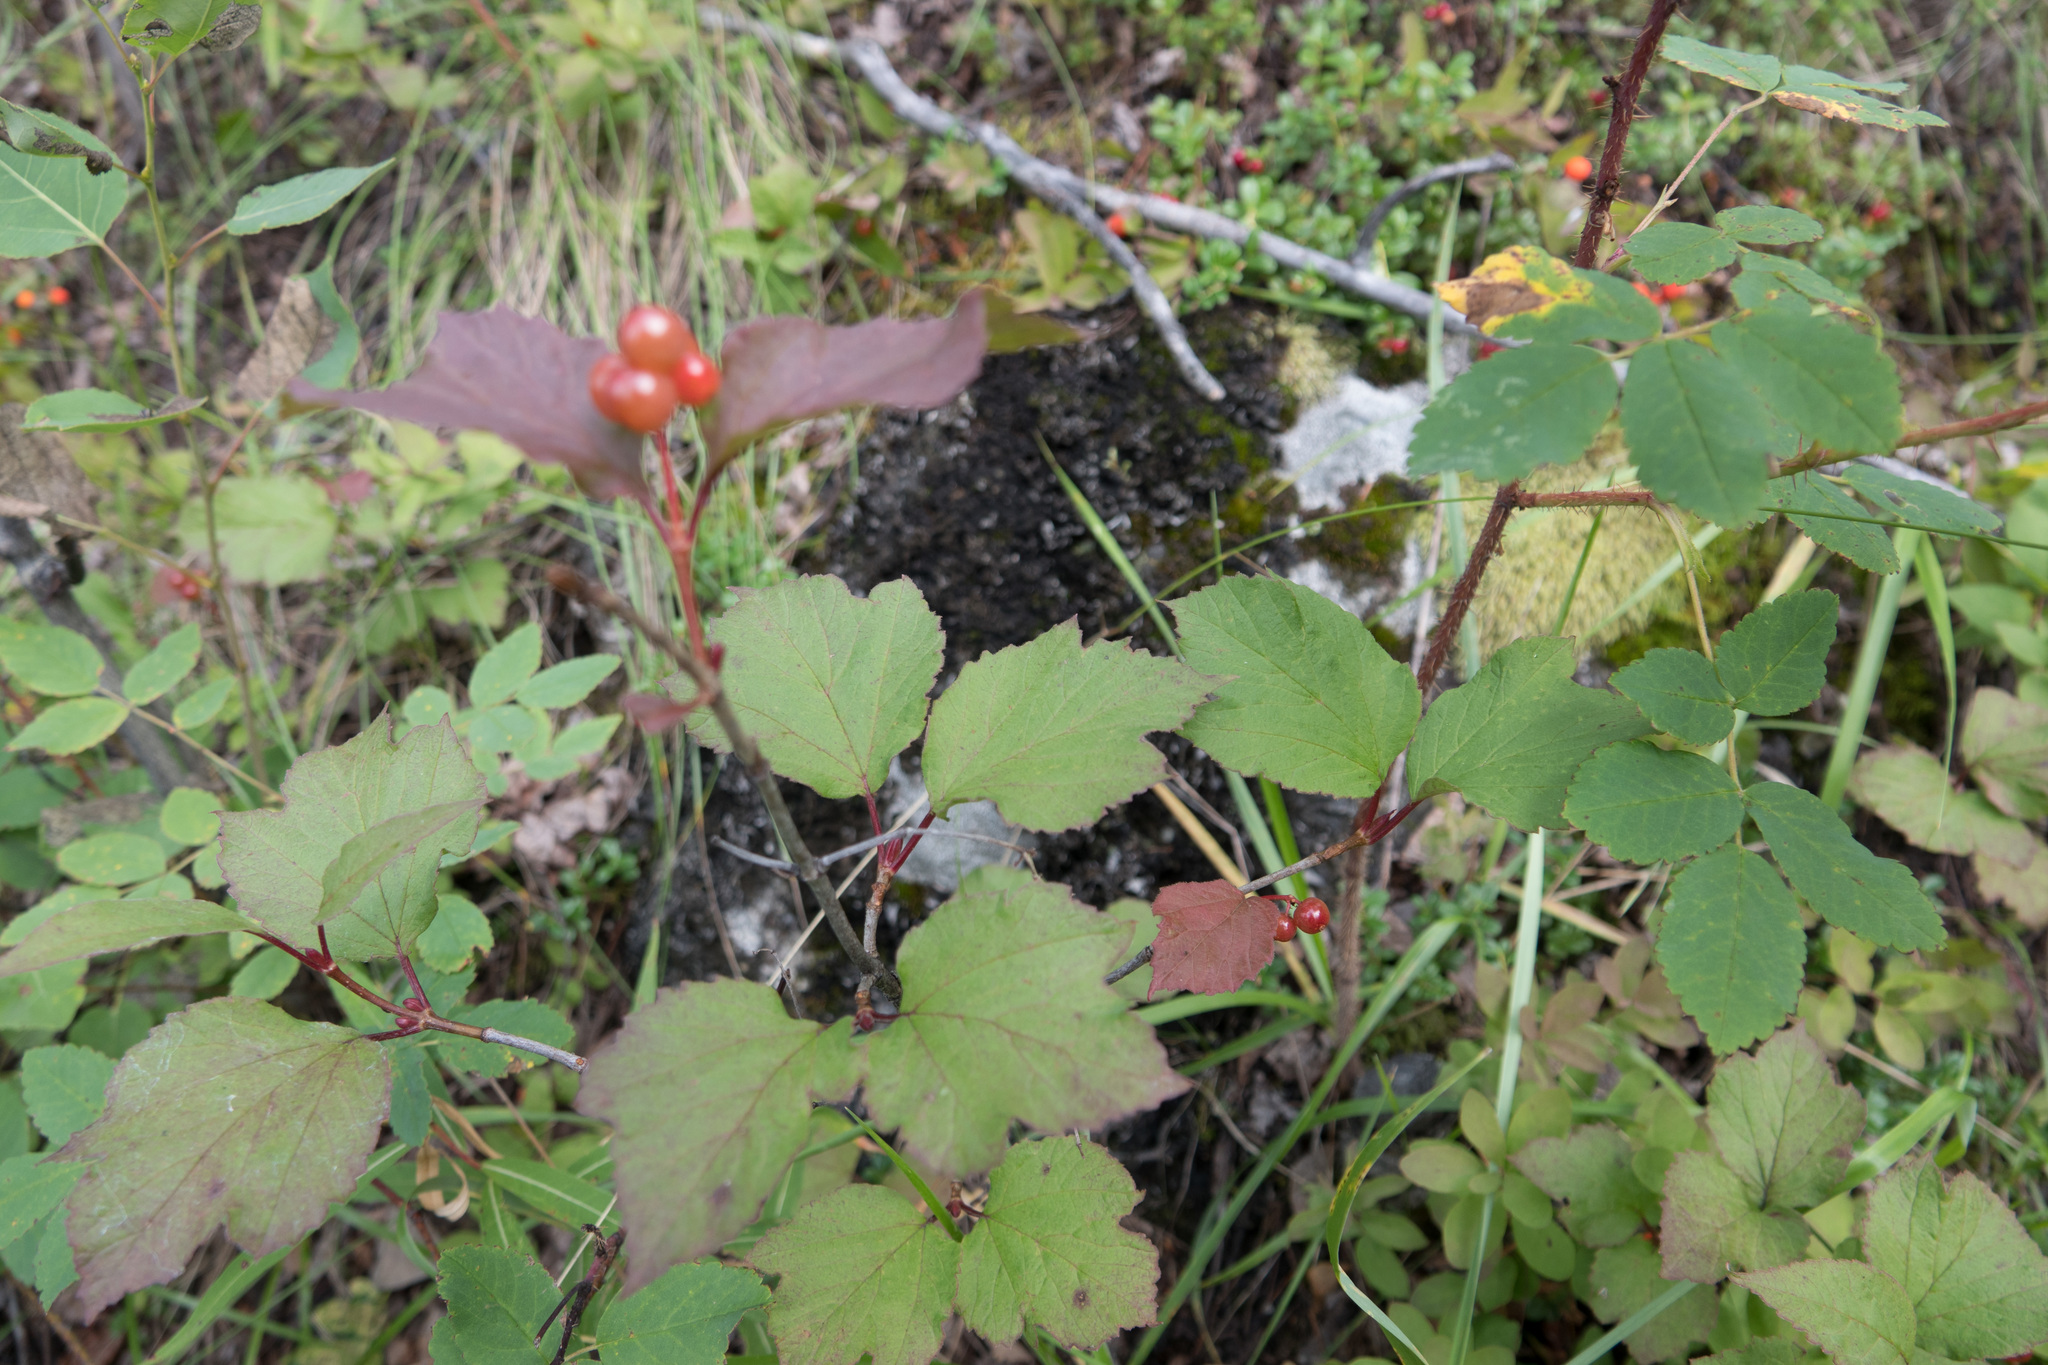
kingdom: Plantae
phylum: Tracheophyta
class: Magnoliopsida
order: Dipsacales
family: Viburnaceae
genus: Viburnum
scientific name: Viburnum edule
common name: Mooseberry
